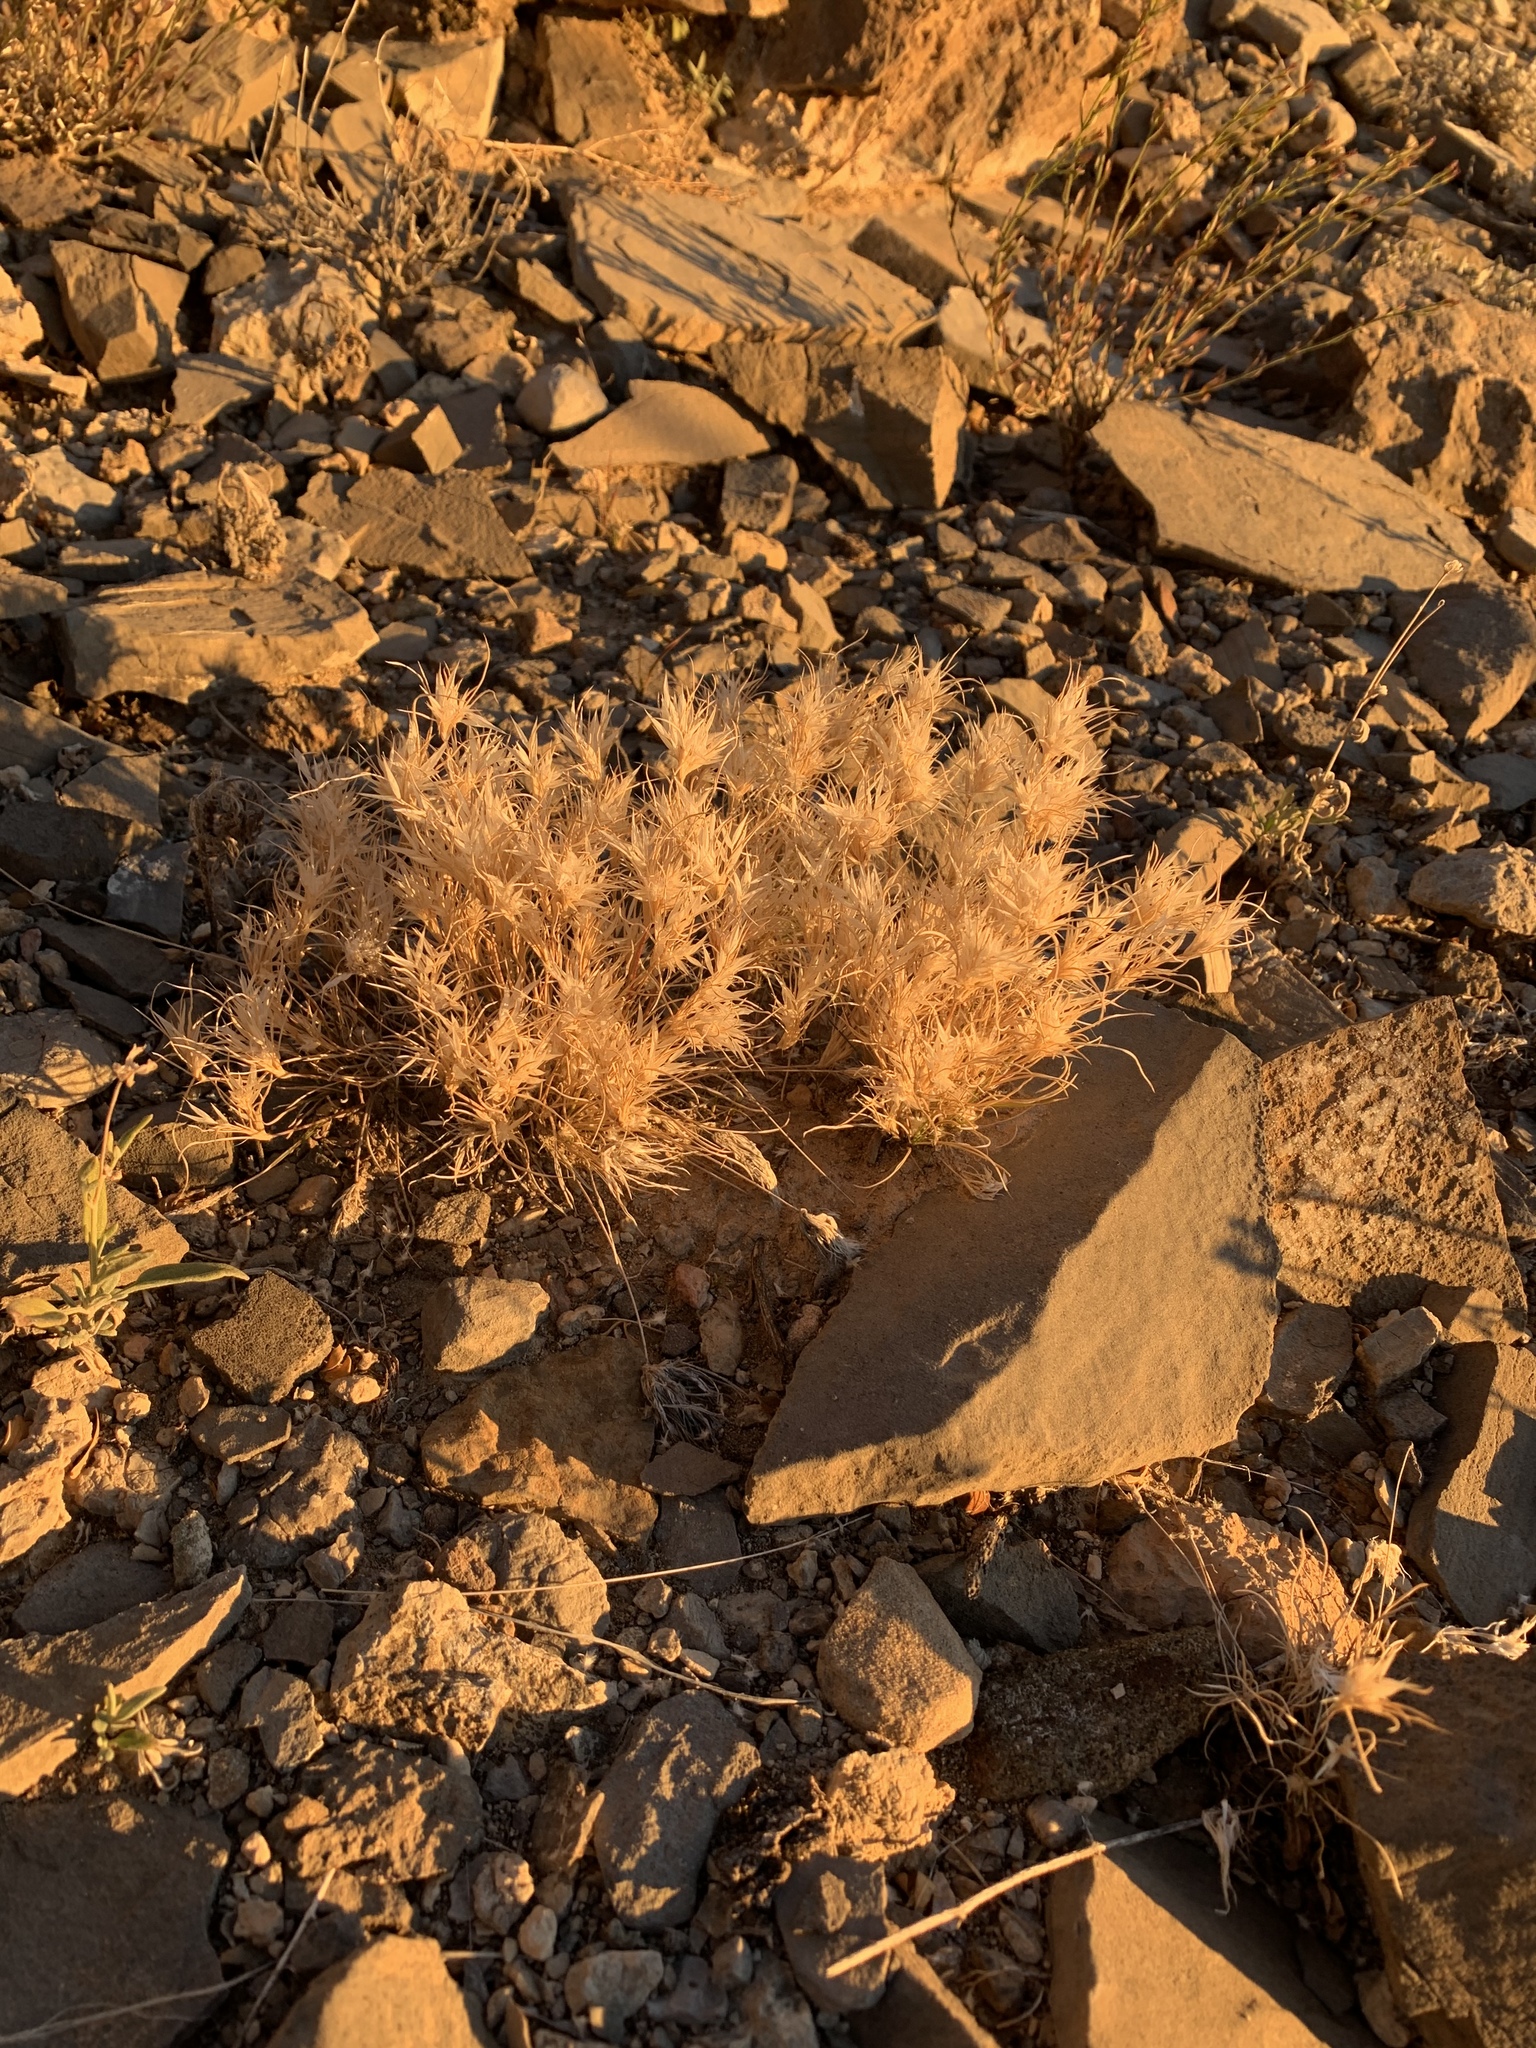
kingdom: Plantae
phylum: Tracheophyta
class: Liliopsida
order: Poales
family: Poaceae
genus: Dasyochloa
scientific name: Dasyochloa pulchella
